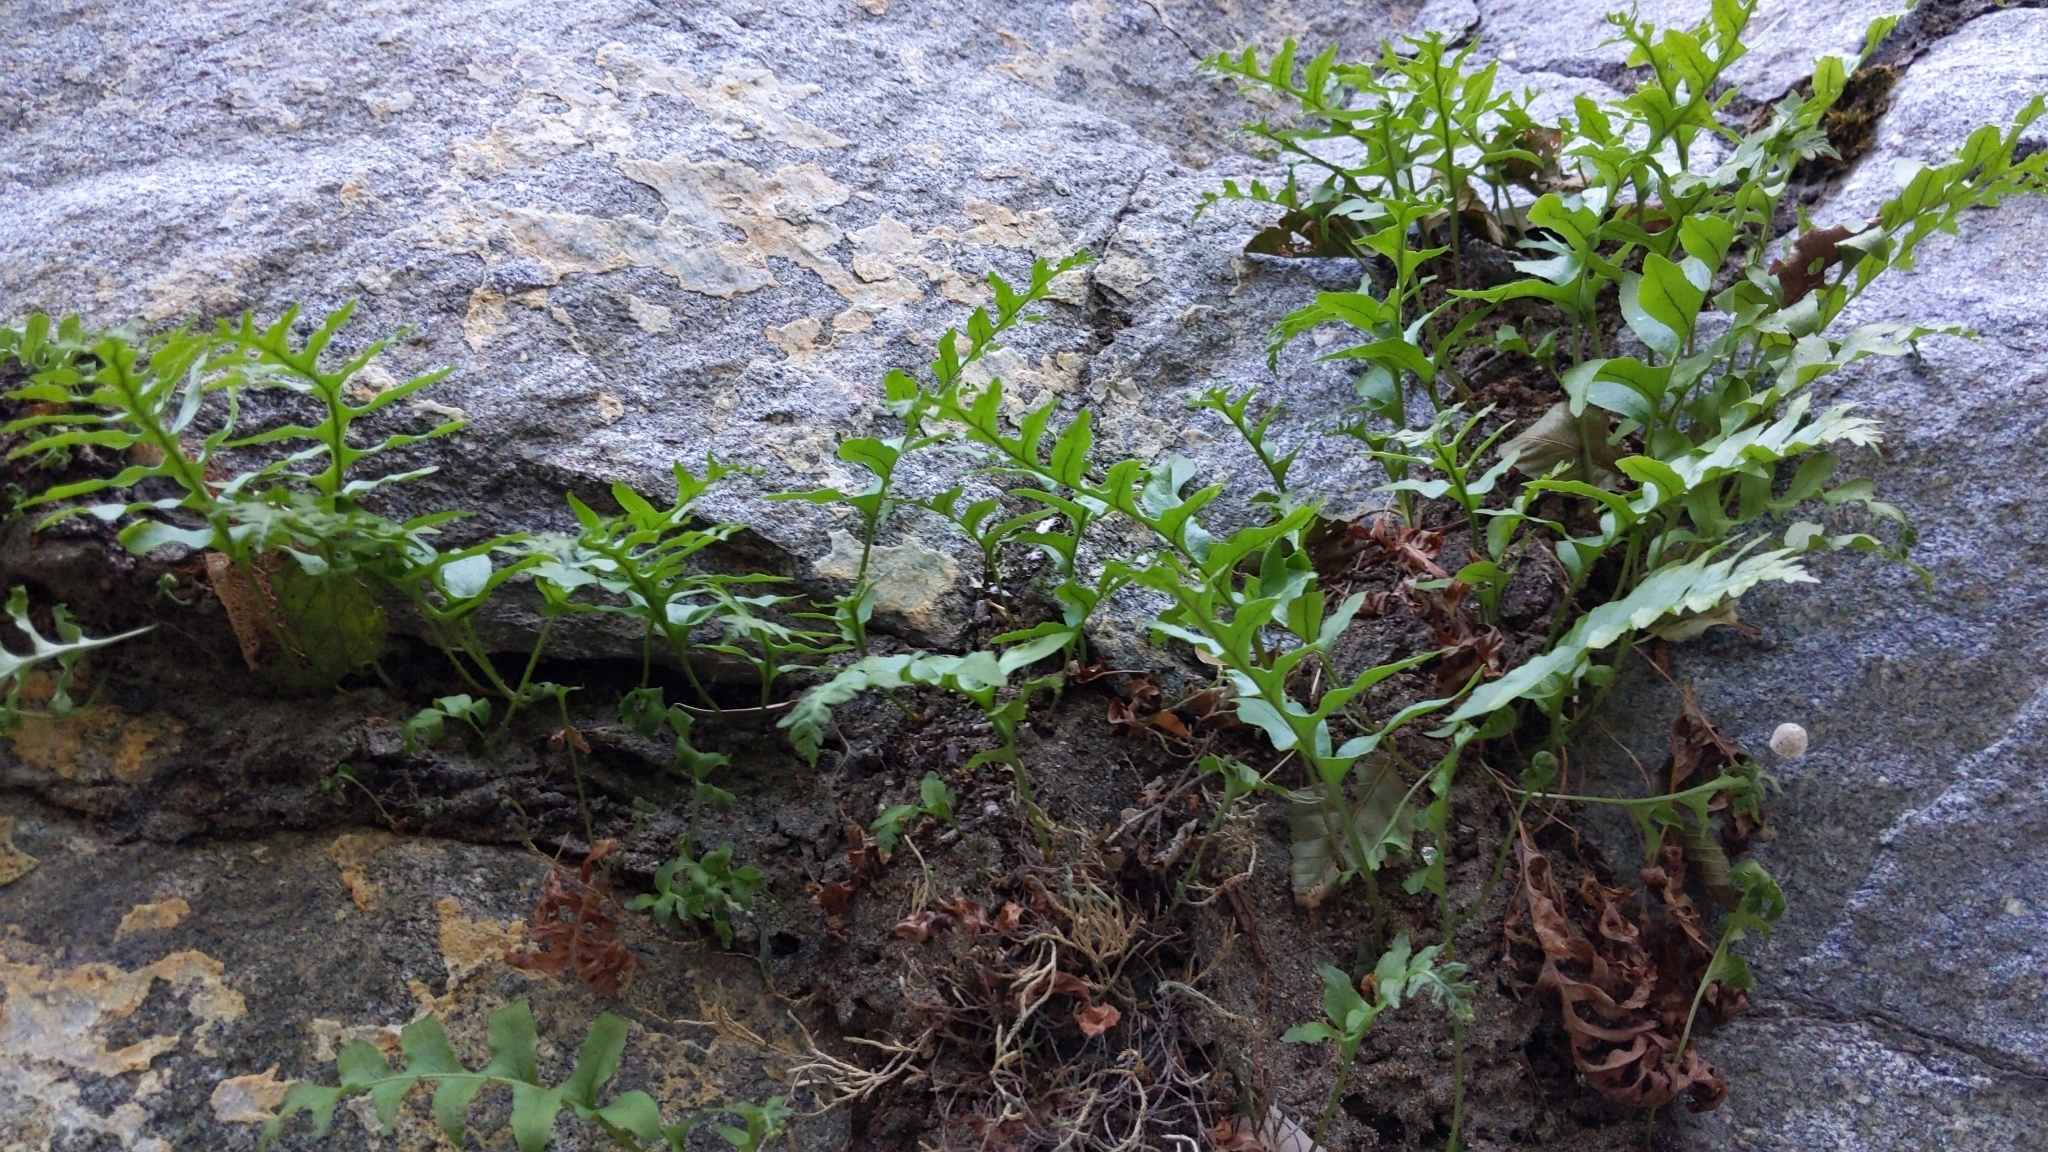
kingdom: Plantae
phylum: Tracheophyta
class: Polypodiopsida
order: Polypodiales
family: Polypodiaceae
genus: Polypodium
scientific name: Polypodium californicum
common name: California polypody
